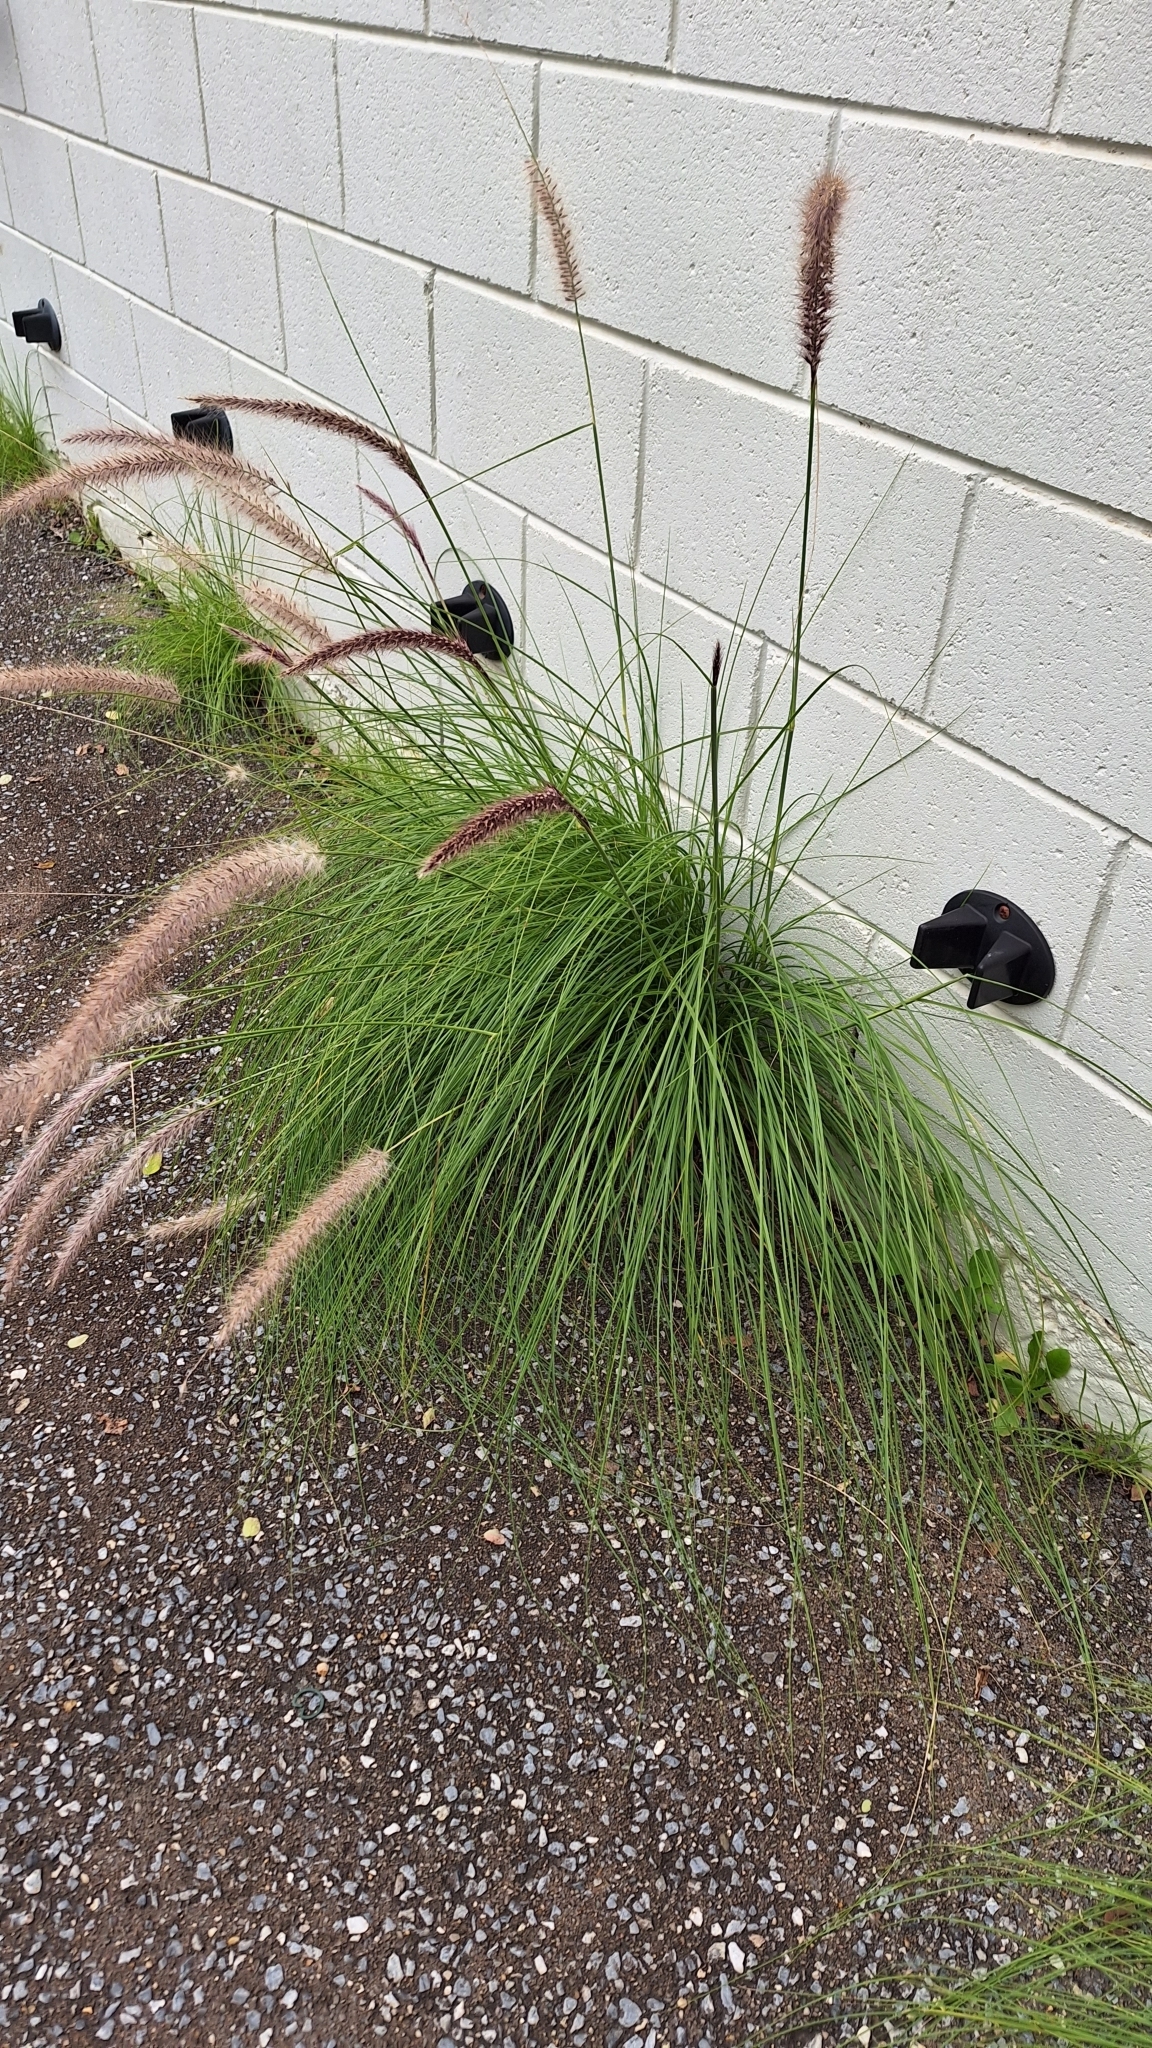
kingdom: Plantae
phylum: Tracheophyta
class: Liliopsida
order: Poales
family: Poaceae
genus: Cenchrus
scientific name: Cenchrus setaceus
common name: Crimson fountaingrass
